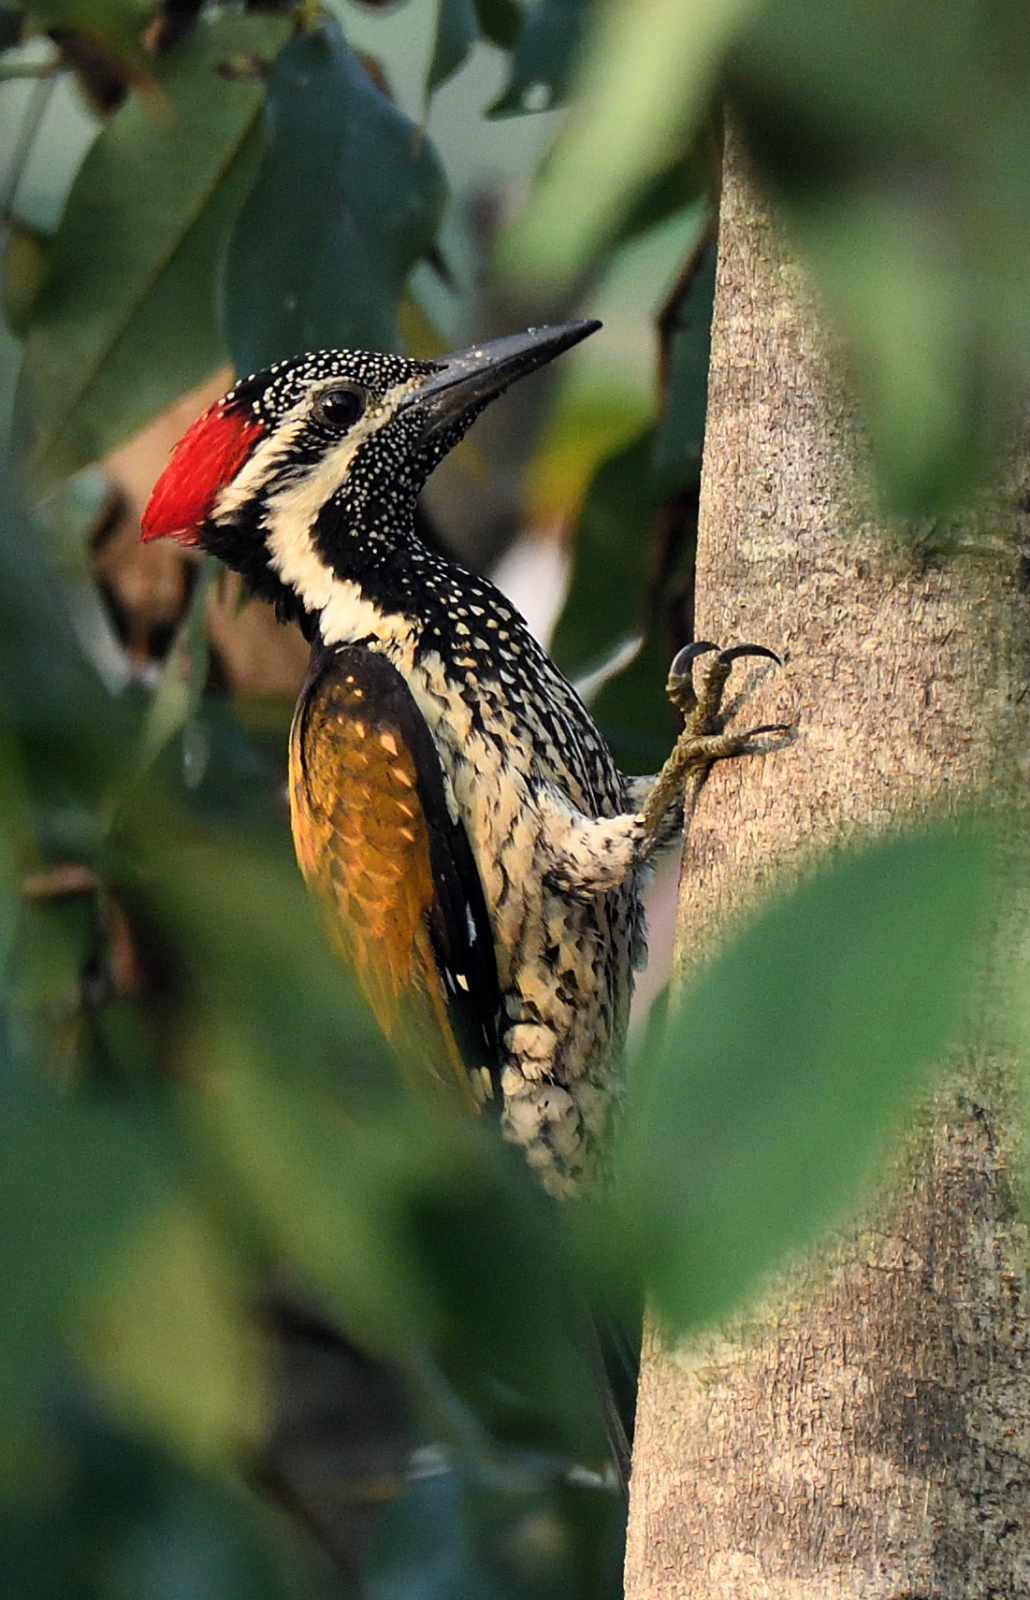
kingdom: Animalia
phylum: Chordata
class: Aves
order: Piciformes
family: Picidae
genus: Dinopium
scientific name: Dinopium benghalense
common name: Black-rumped flameback
